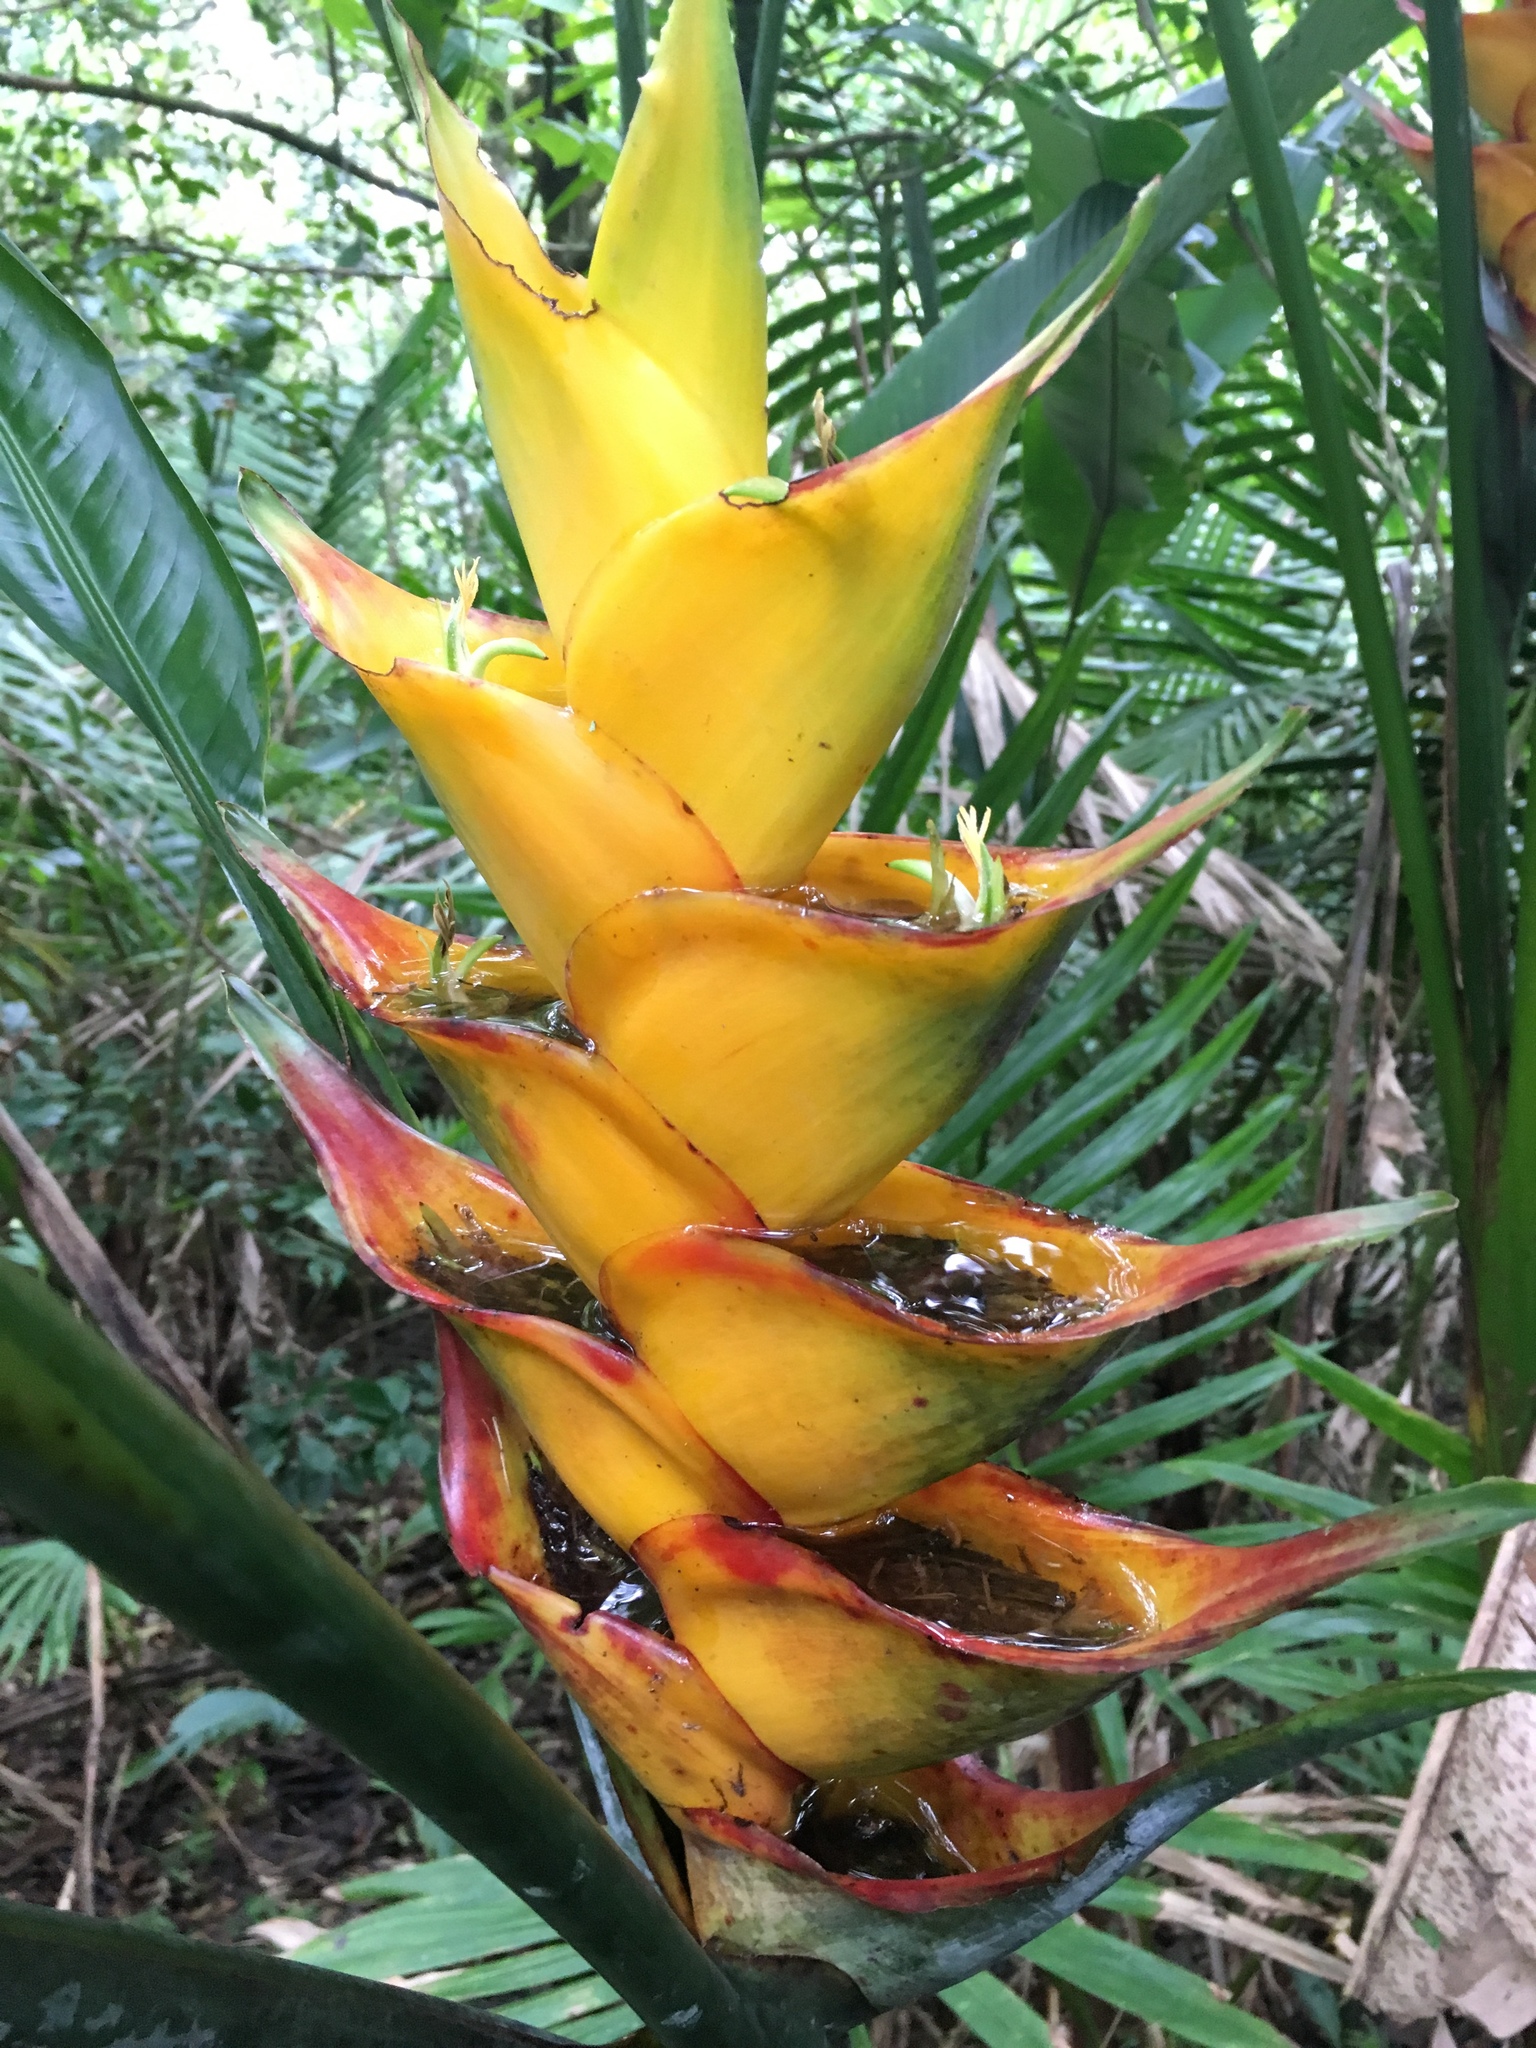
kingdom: Plantae
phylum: Tracheophyta
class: Liliopsida
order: Zingiberales
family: Heliconiaceae
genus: Heliconia
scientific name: Heliconia caribaea
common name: Wild plantain
